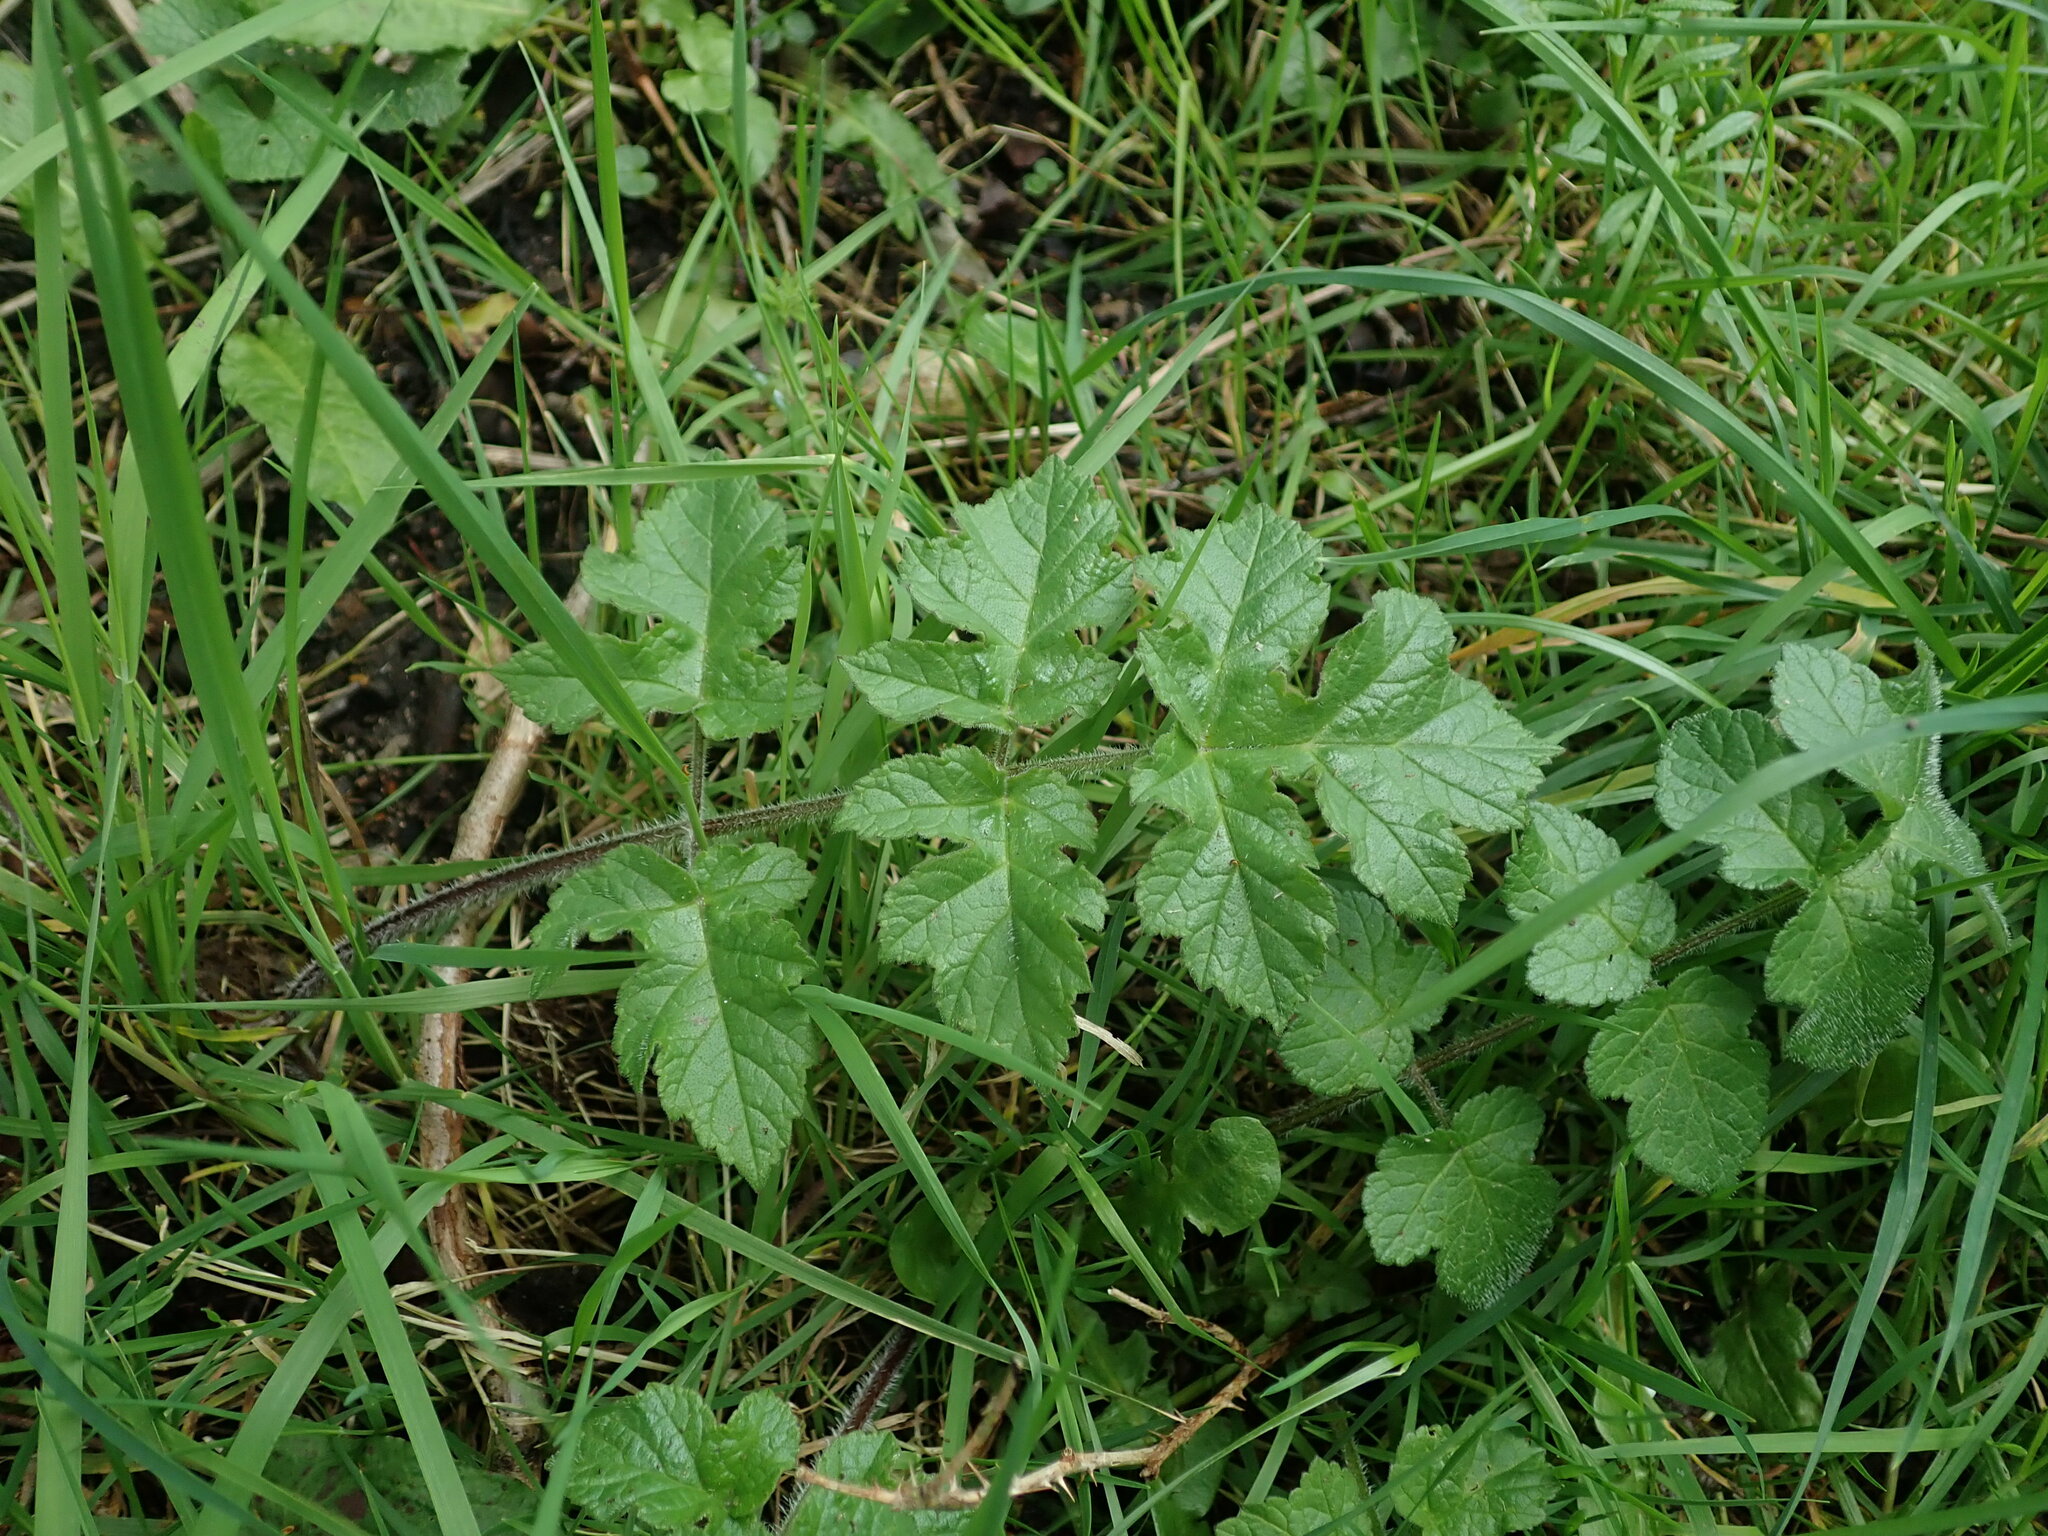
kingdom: Plantae
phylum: Tracheophyta
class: Magnoliopsida
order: Apiales
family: Apiaceae
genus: Heracleum
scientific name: Heracleum sphondylium
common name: Hogweed
